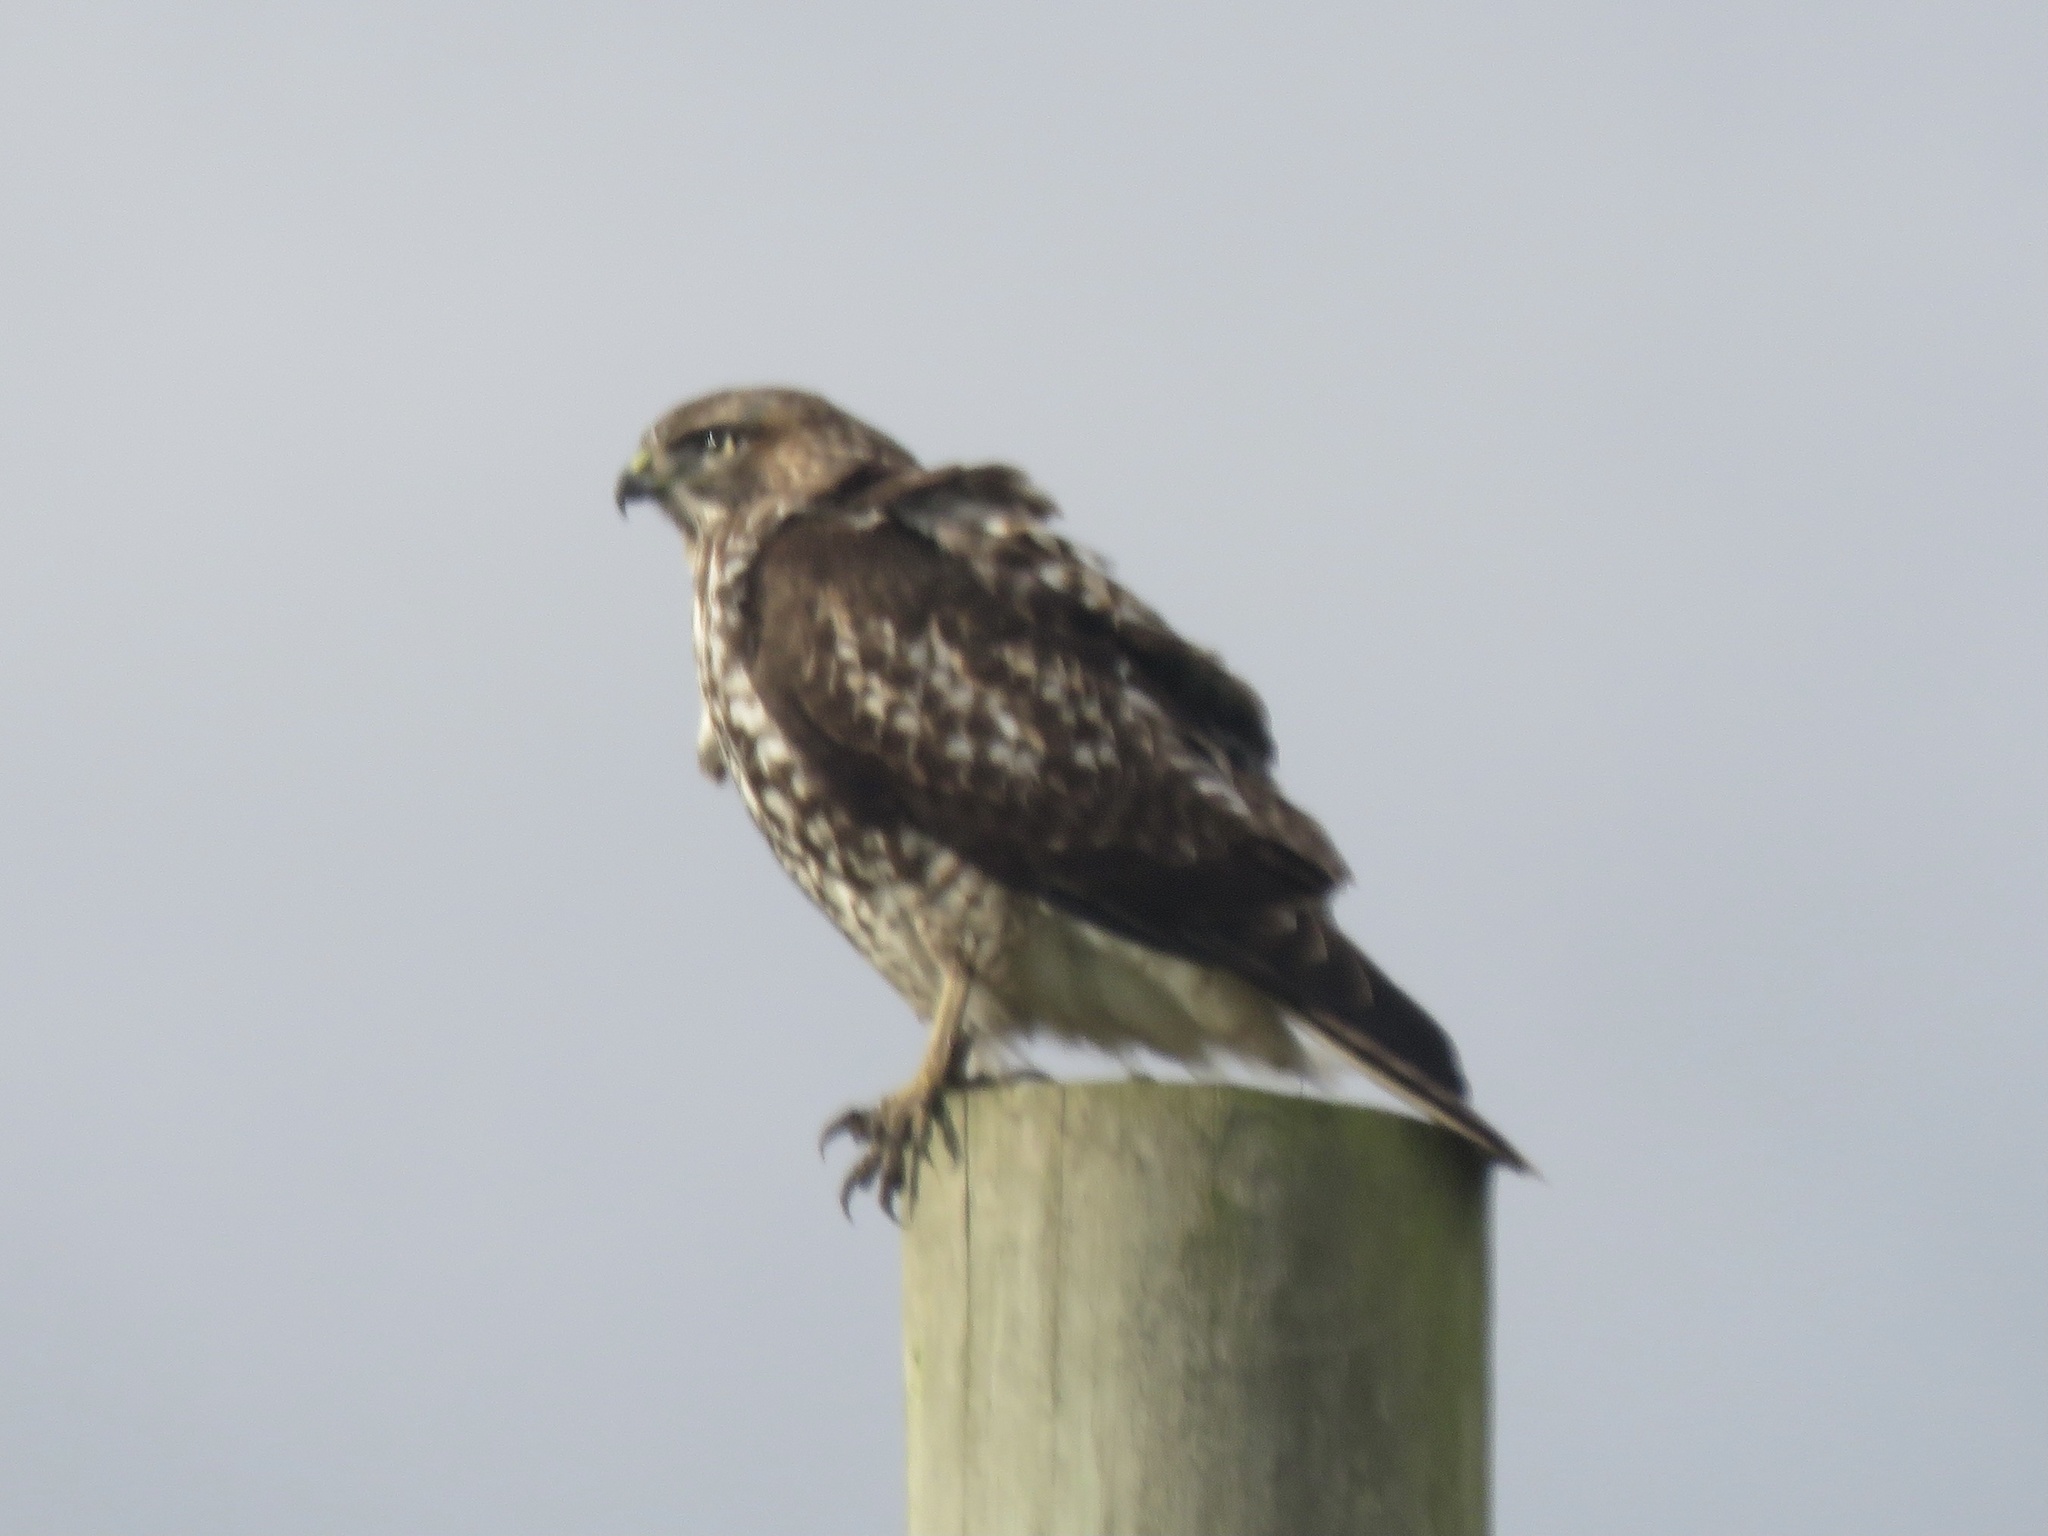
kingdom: Animalia
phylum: Chordata
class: Aves
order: Accipitriformes
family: Accipitridae
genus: Buteo
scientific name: Buteo jamaicensis
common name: Red-tailed hawk
